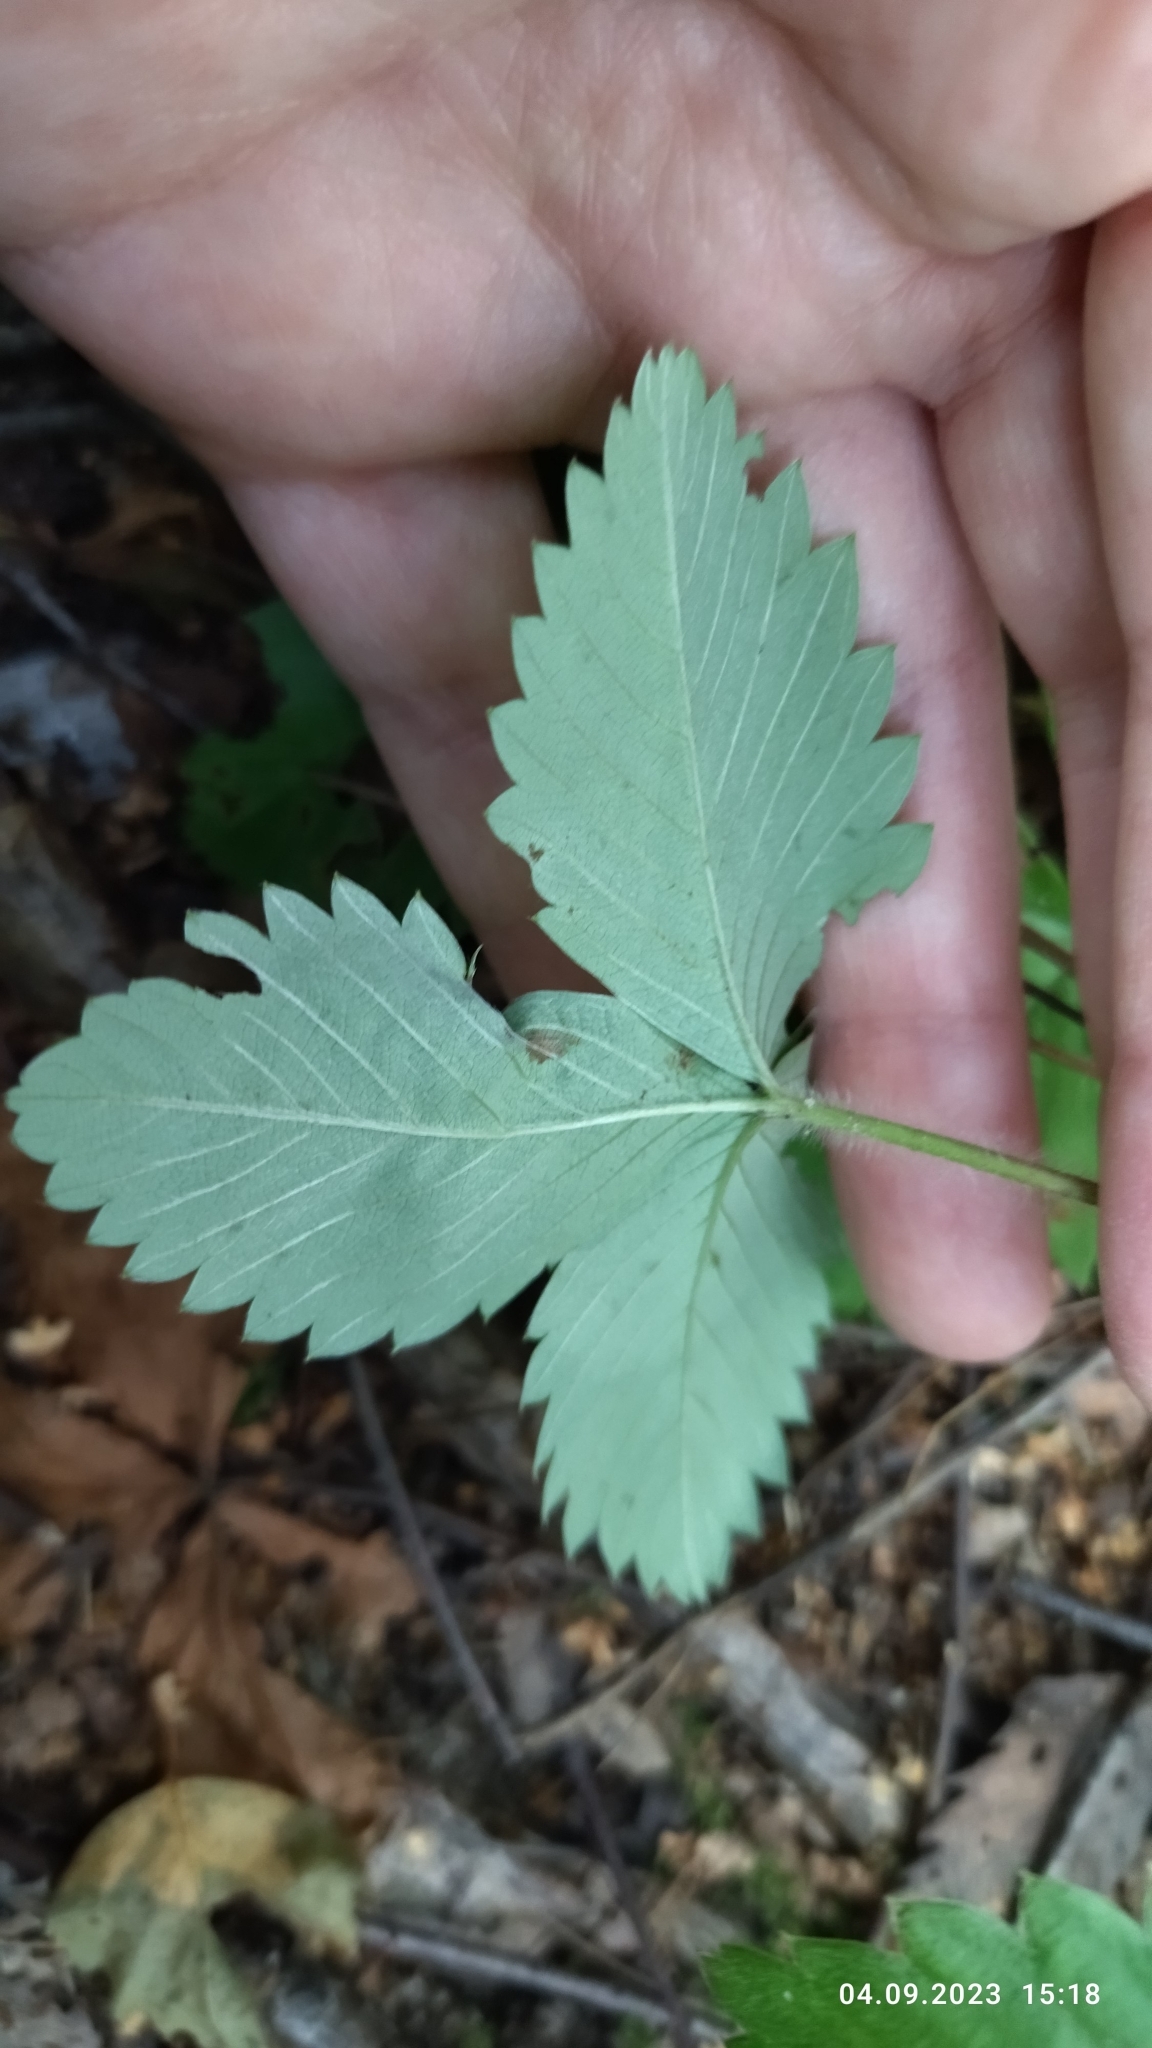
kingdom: Plantae
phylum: Tracheophyta
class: Magnoliopsida
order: Rosales
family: Rosaceae
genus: Fragaria
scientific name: Fragaria vesca
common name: Wild strawberry
